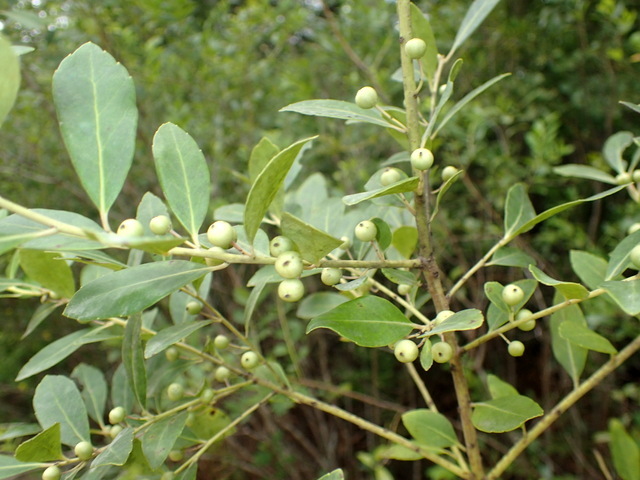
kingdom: Plantae
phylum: Tracheophyta
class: Magnoliopsida
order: Aquifoliales
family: Aquifoliaceae
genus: Ilex
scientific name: Ilex glabra
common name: Bitter gallberry
